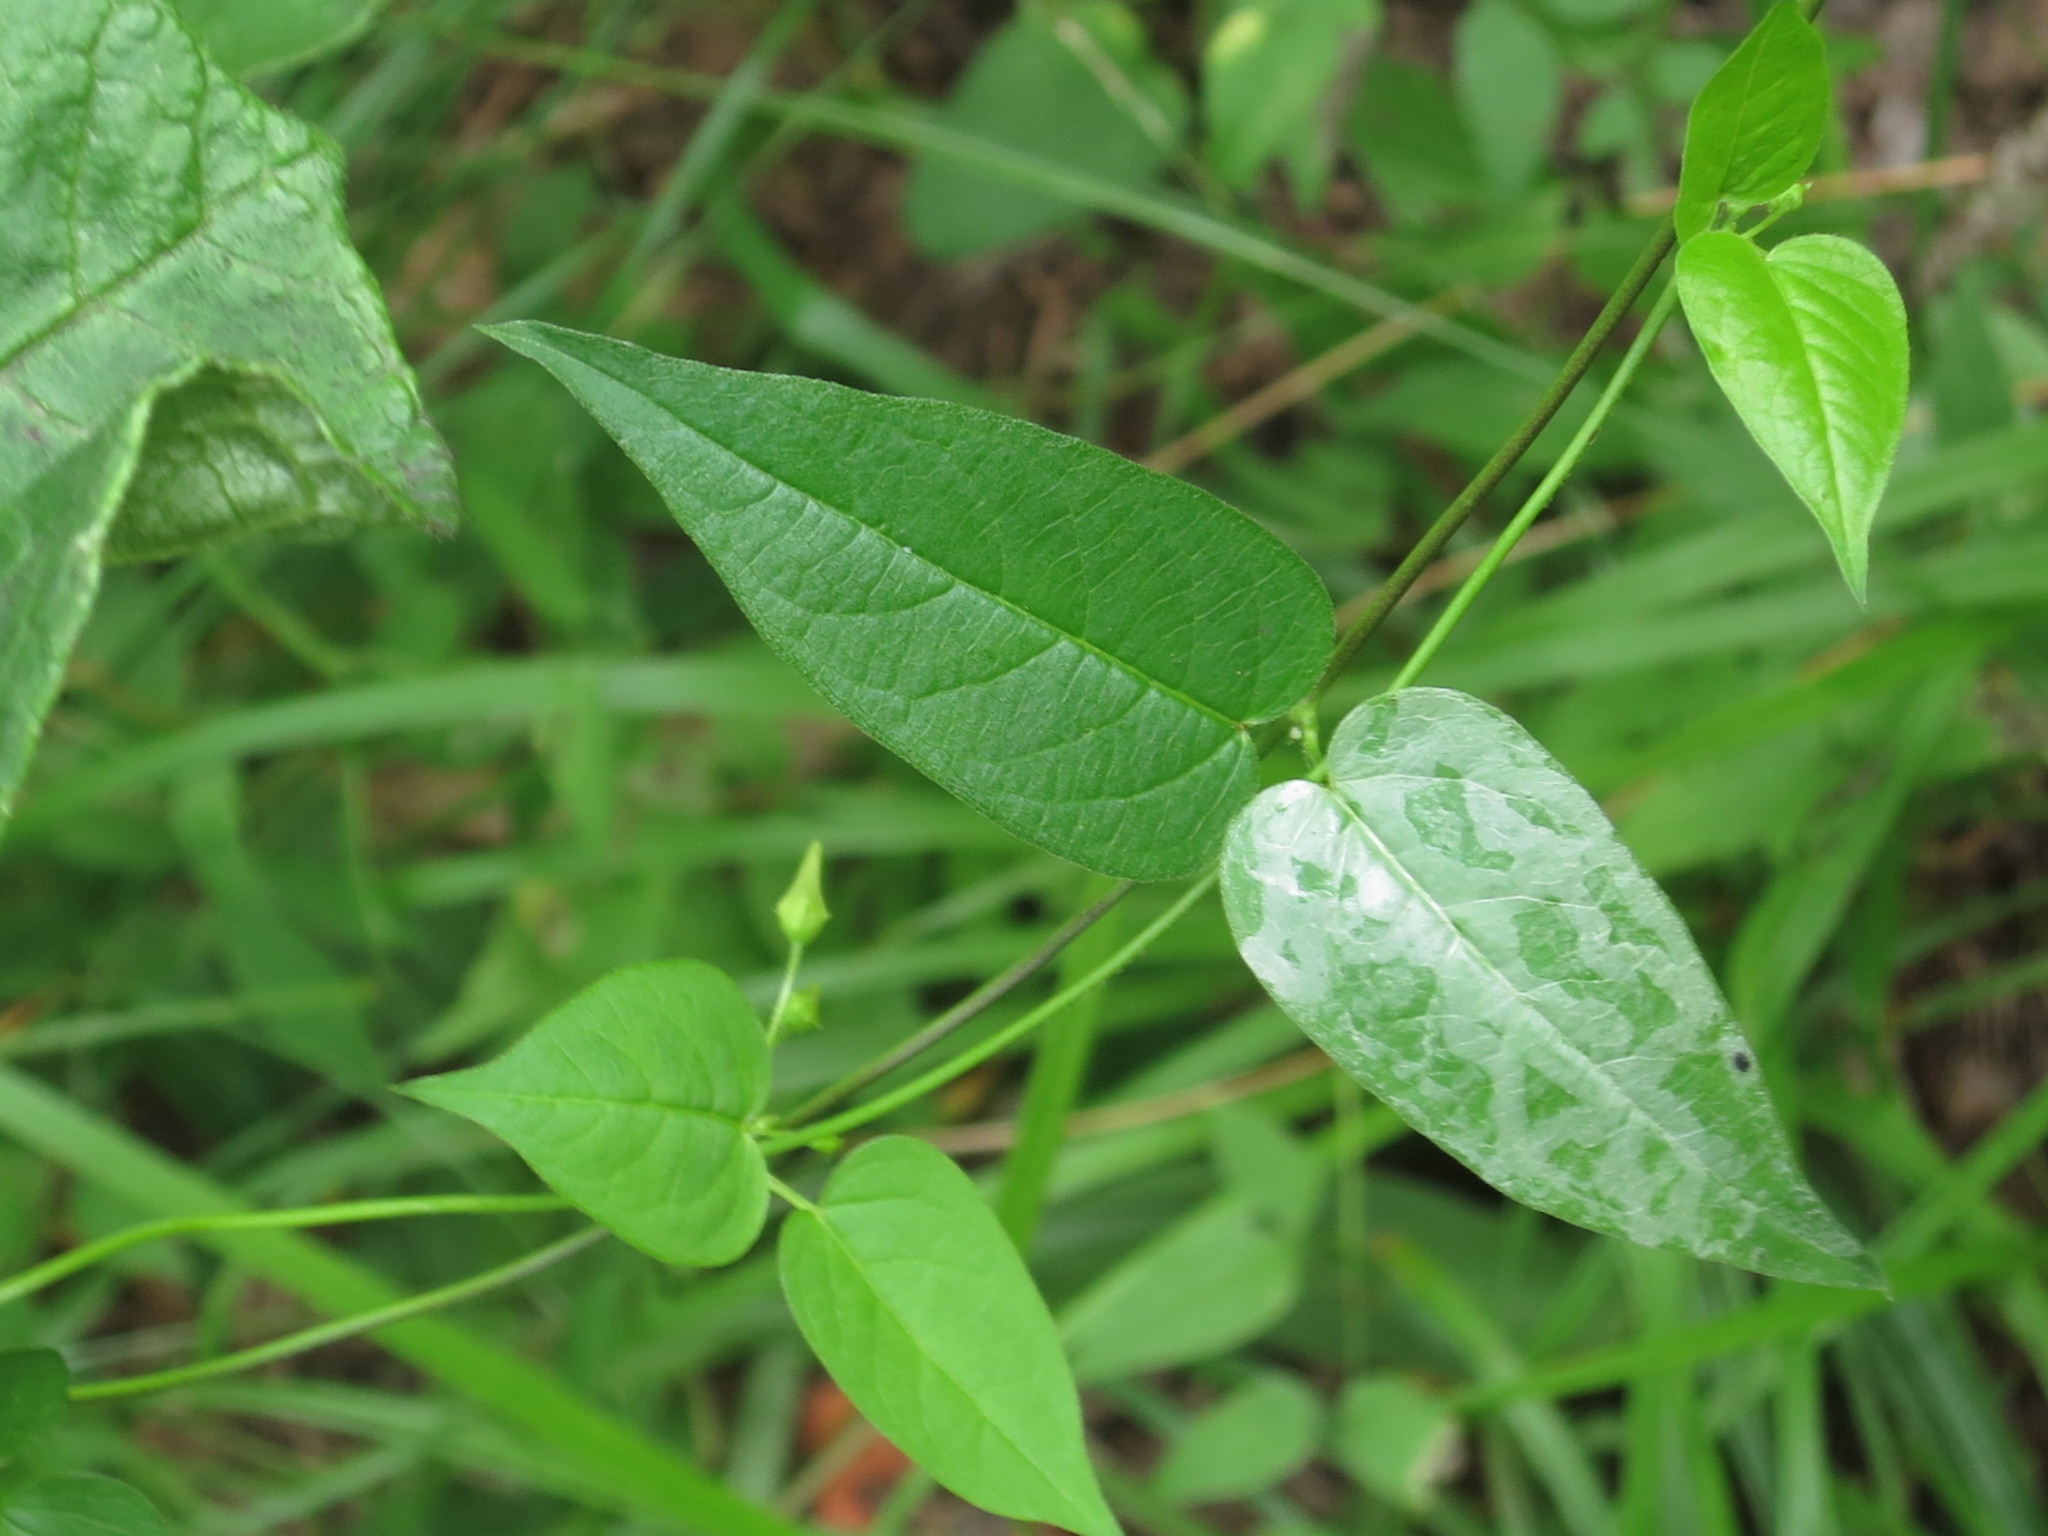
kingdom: Plantae
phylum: Tracheophyta
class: Magnoliopsida
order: Gentianales
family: Apocynaceae
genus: Vincetoxicum
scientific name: Vincetoxicum volubile
